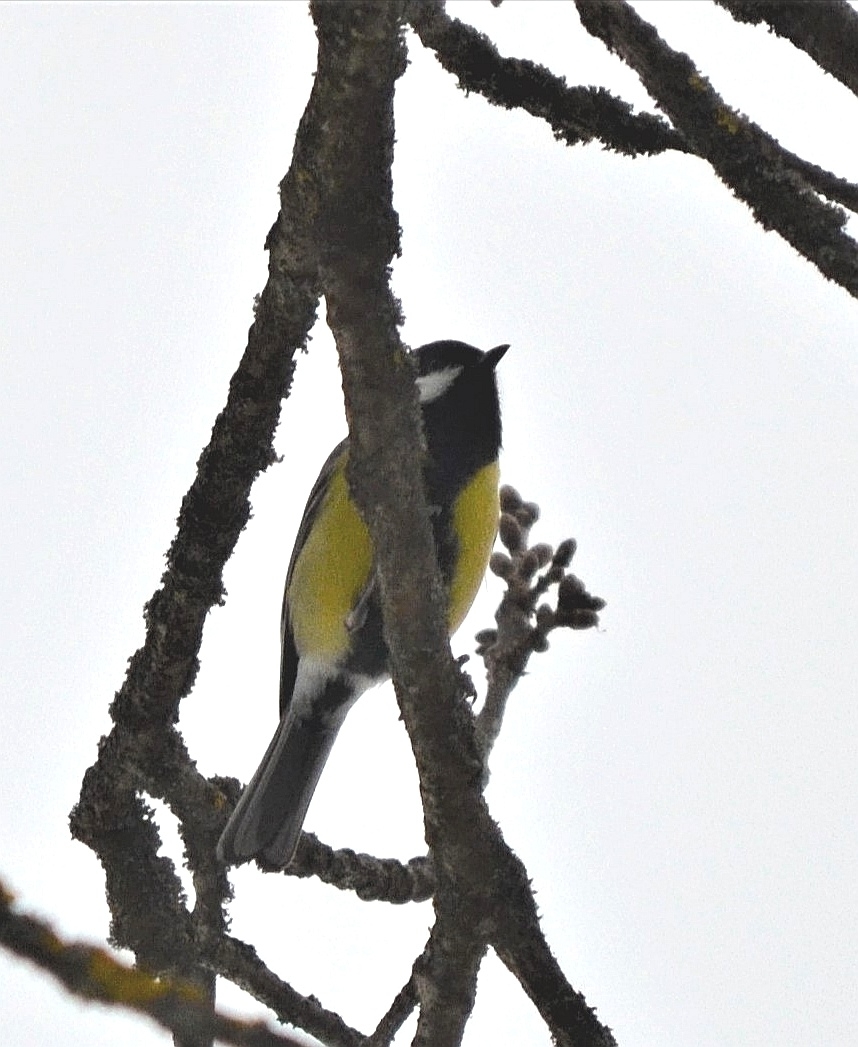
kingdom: Animalia
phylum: Chordata
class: Aves
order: Passeriformes
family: Paridae
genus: Parus
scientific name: Parus major
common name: Great tit
